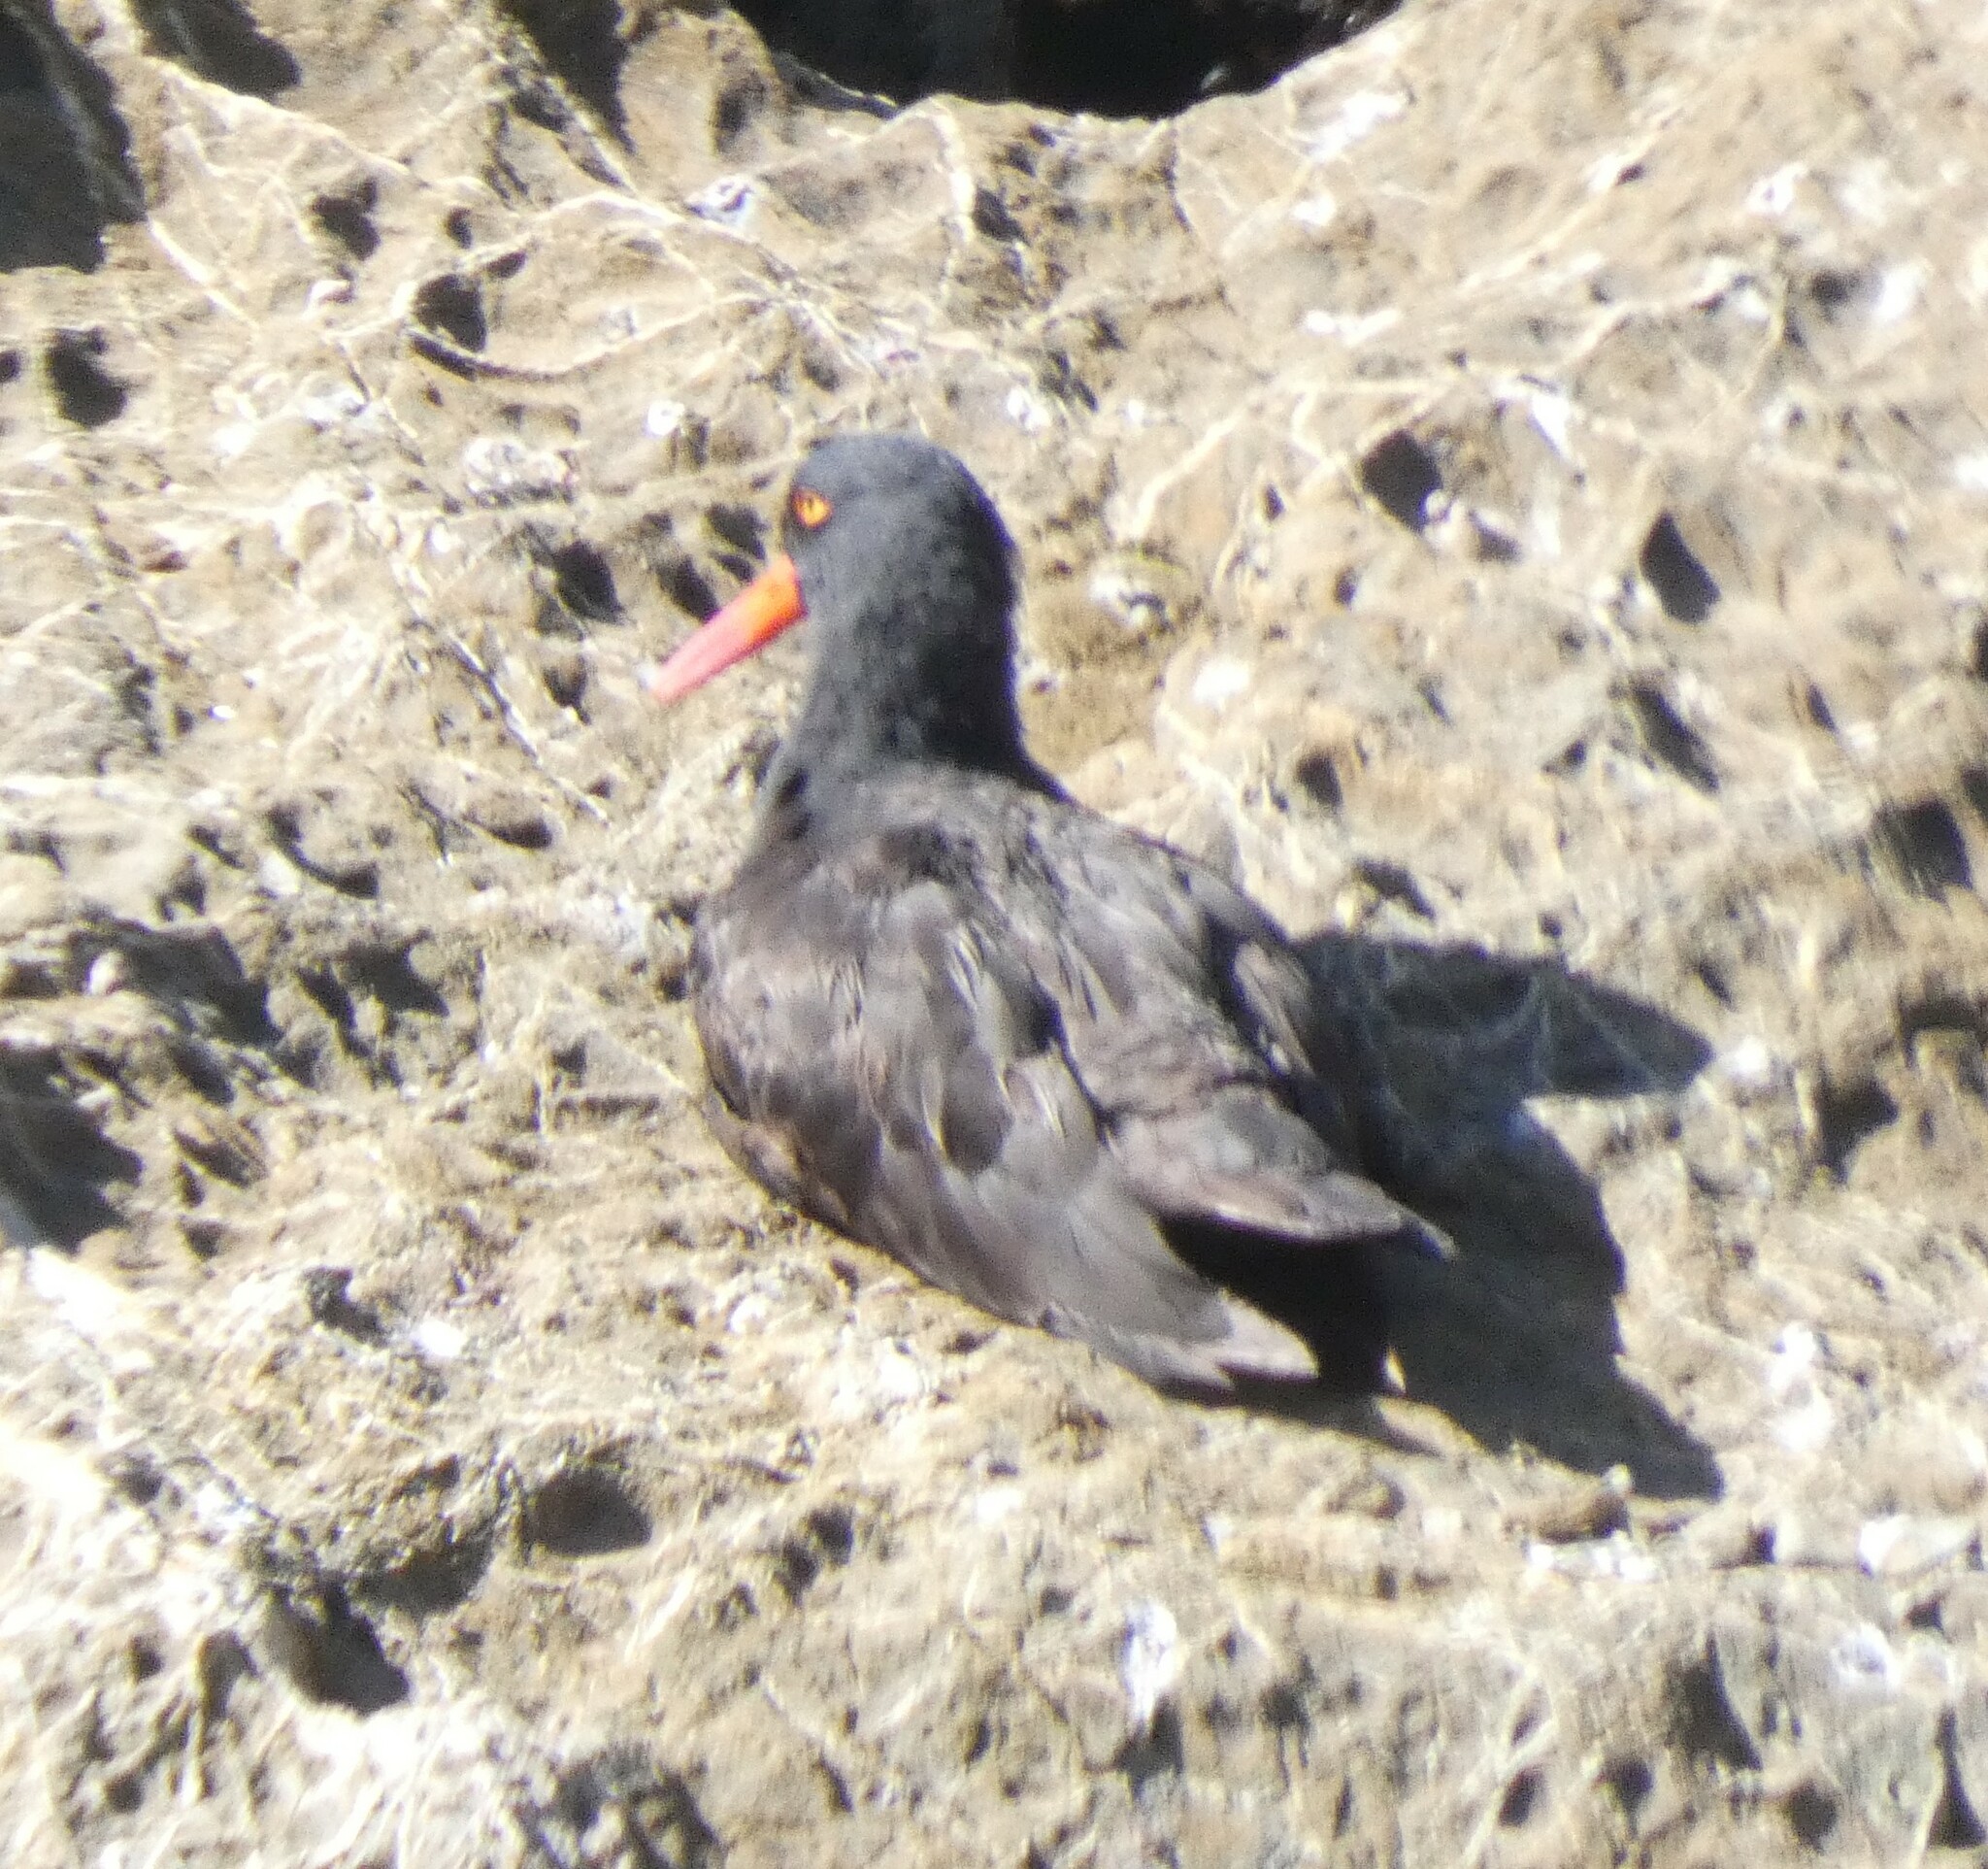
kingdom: Animalia
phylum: Chordata
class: Aves
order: Charadriiformes
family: Haematopodidae
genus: Haematopus
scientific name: Haematopus bachmani
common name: Black oystercatcher
